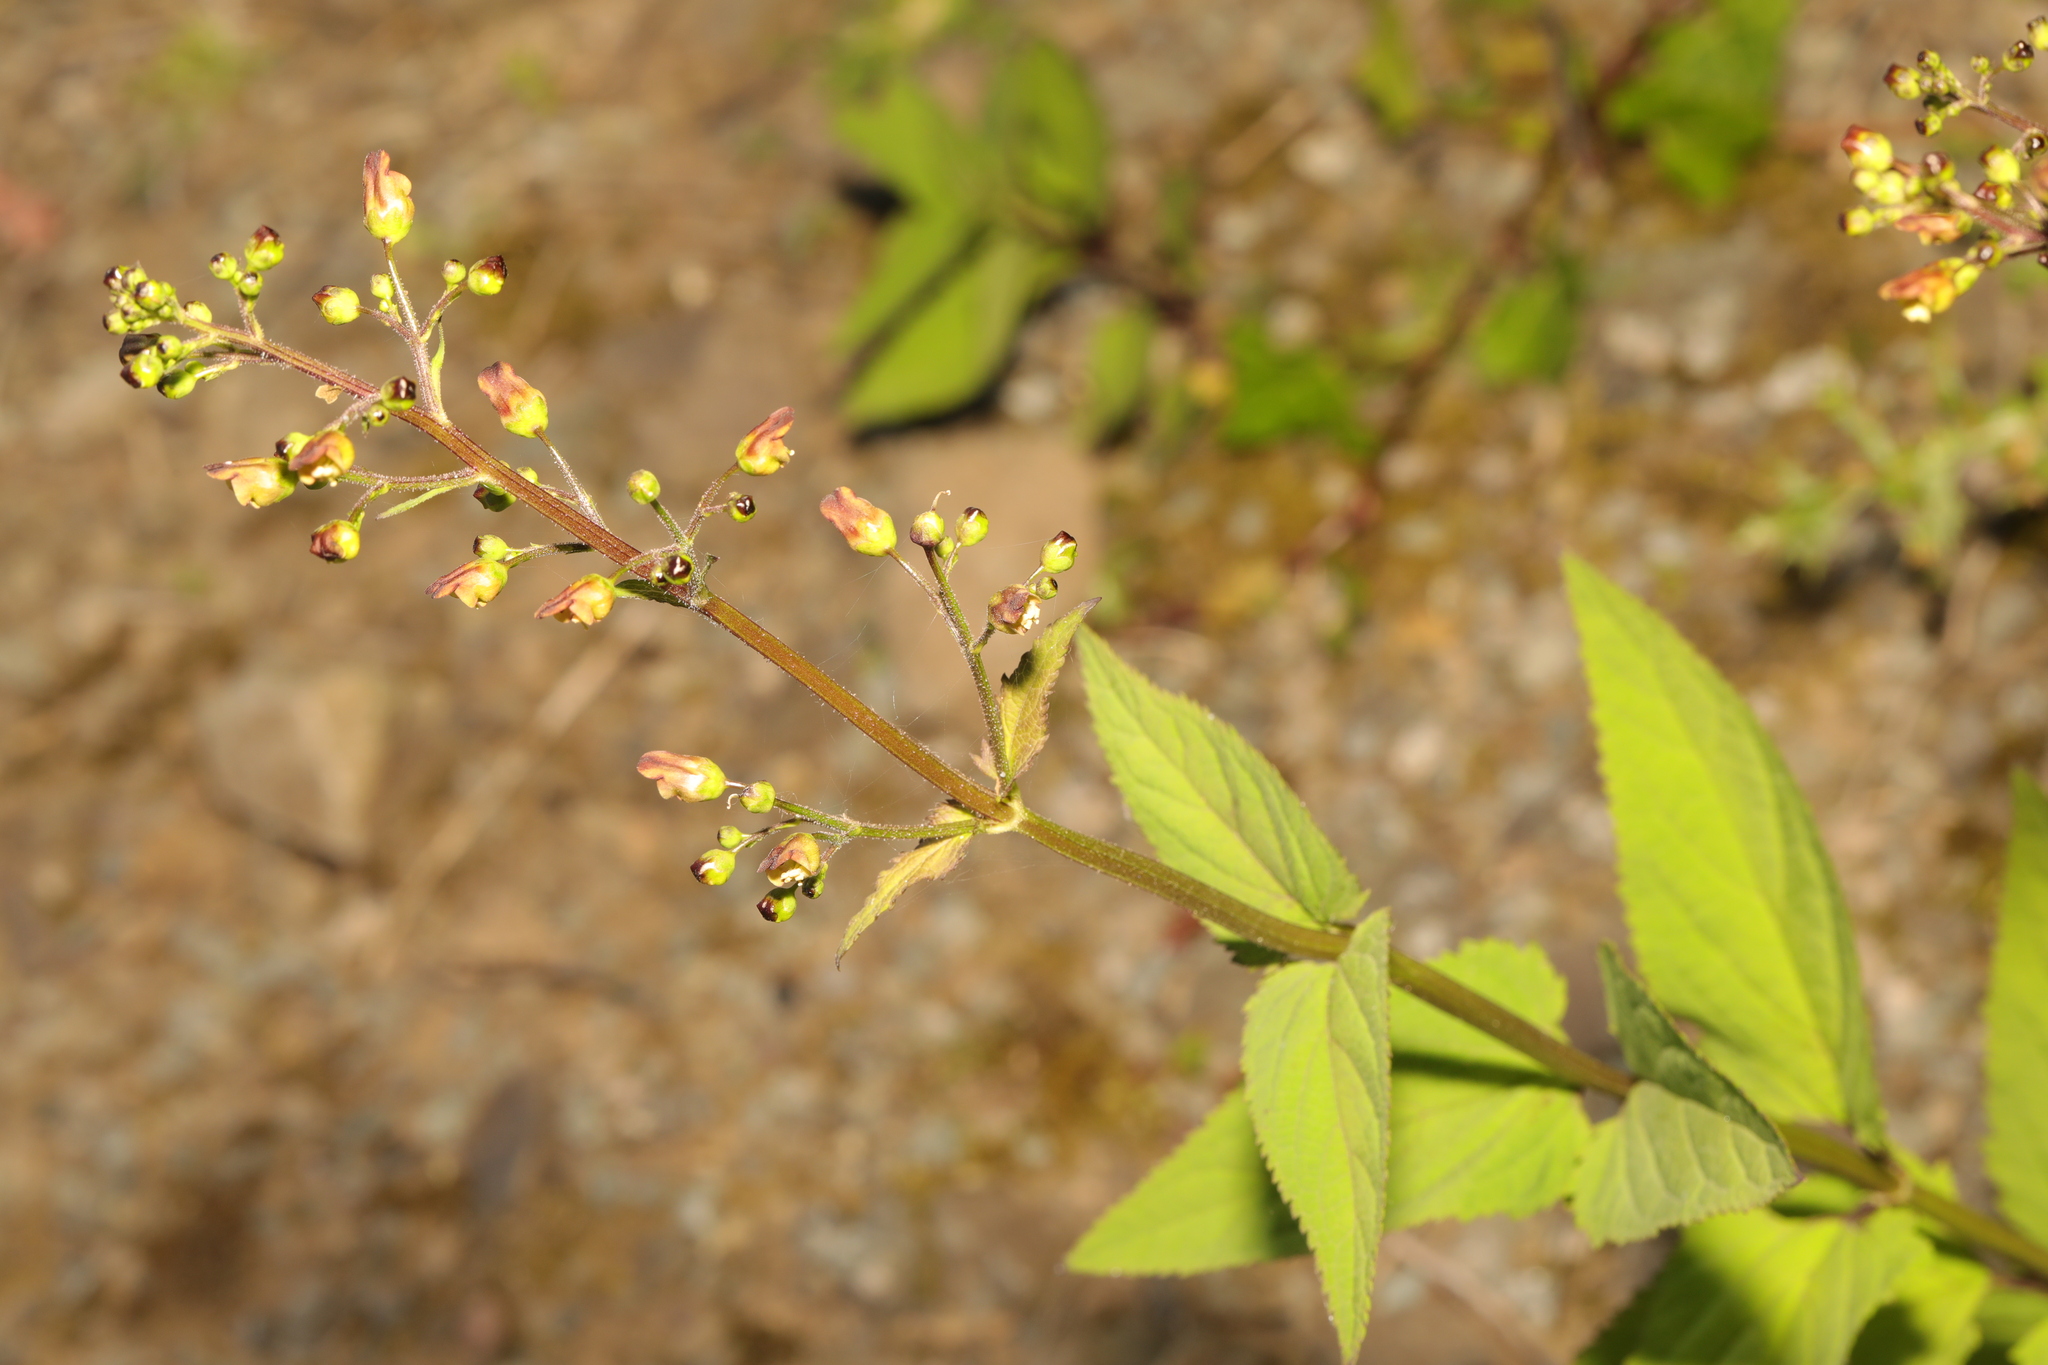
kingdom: Plantae
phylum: Tracheophyta
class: Magnoliopsida
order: Lamiales
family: Scrophulariaceae
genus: Scrophularia
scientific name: Scrophularia nodosa
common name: Common figwort
